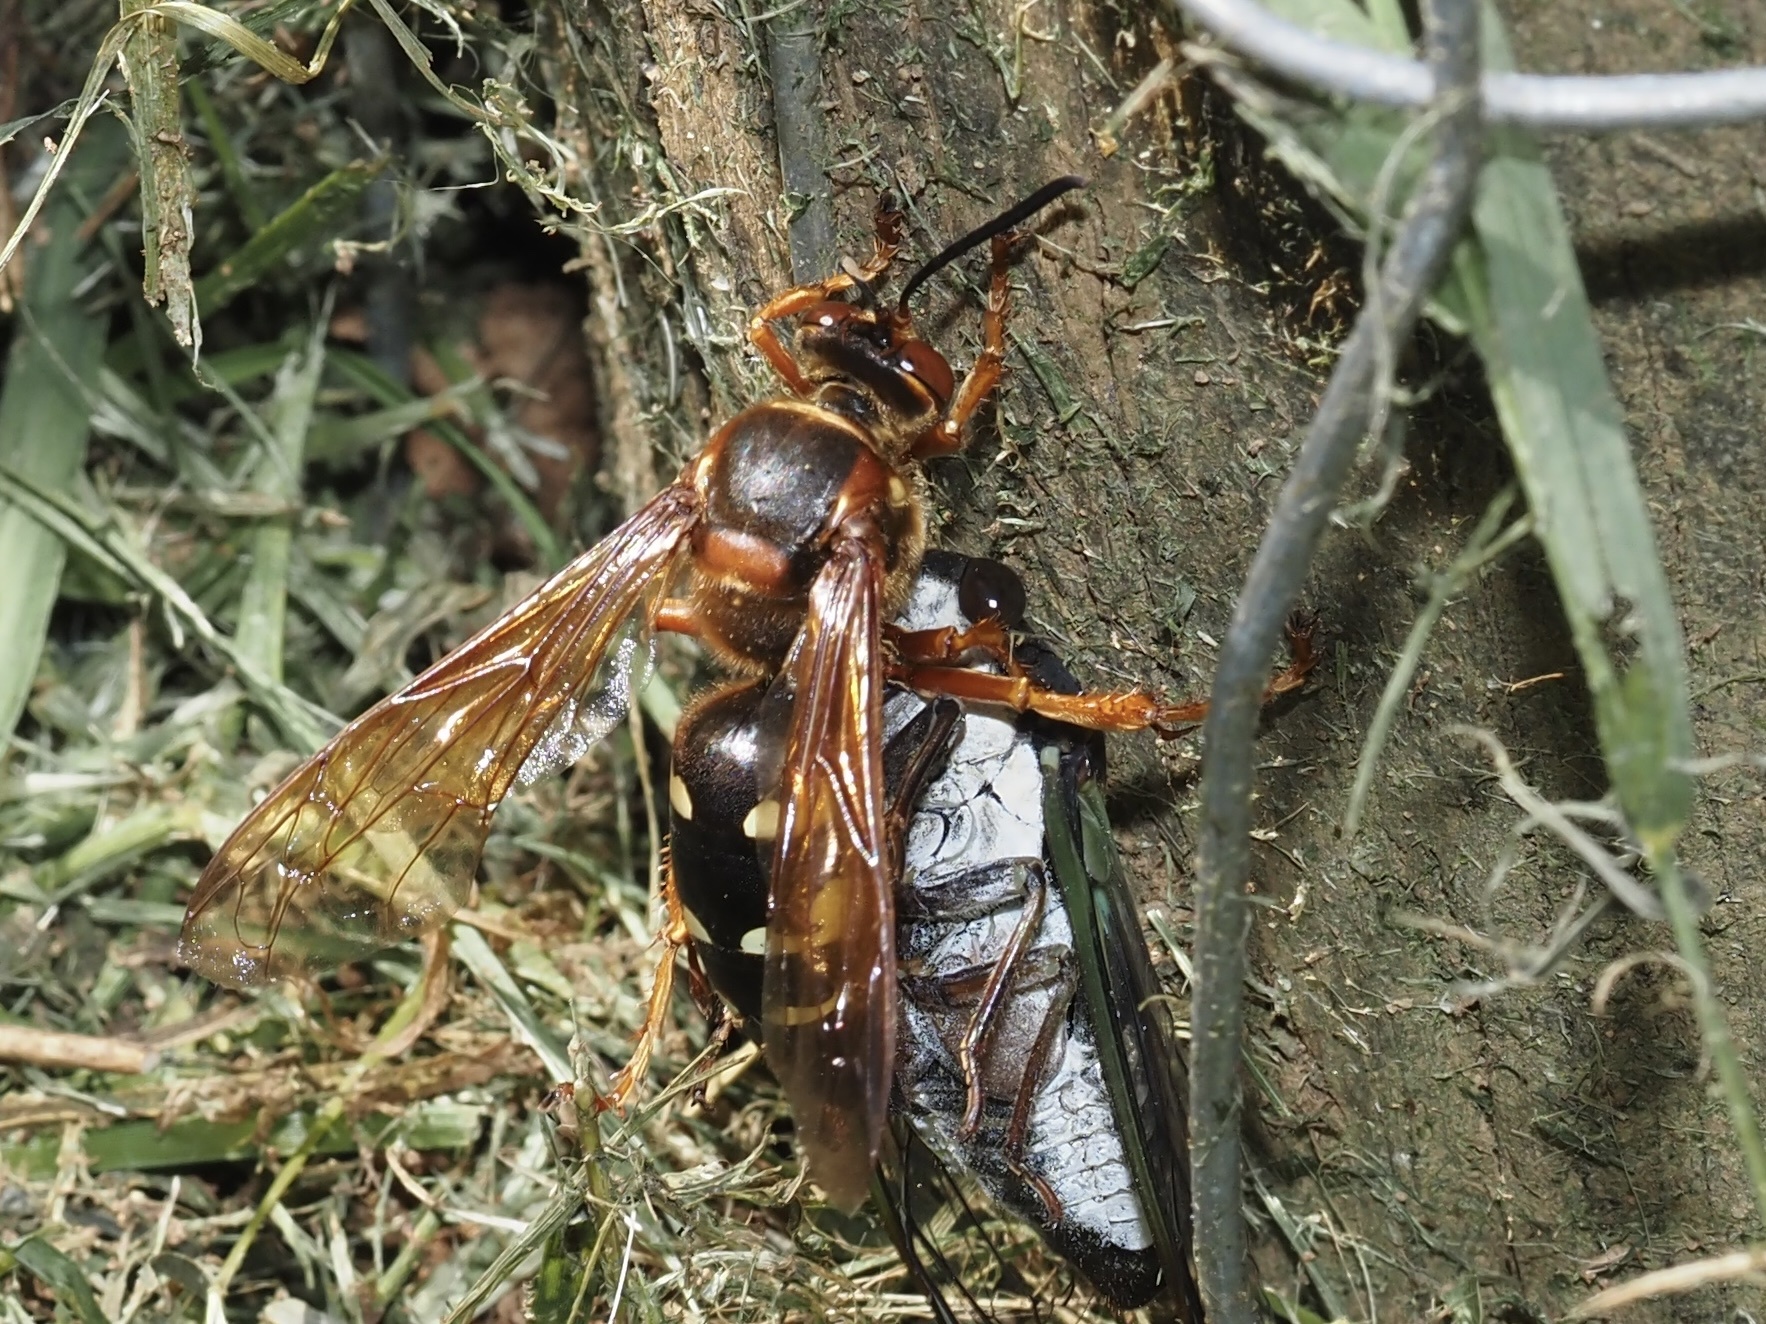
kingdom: Animalia
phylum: Arthropoda
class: Insecta
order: Hymenoptera
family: Crabronidae
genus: Sphecius
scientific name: Sphecius speciosus
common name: Cicada killer
